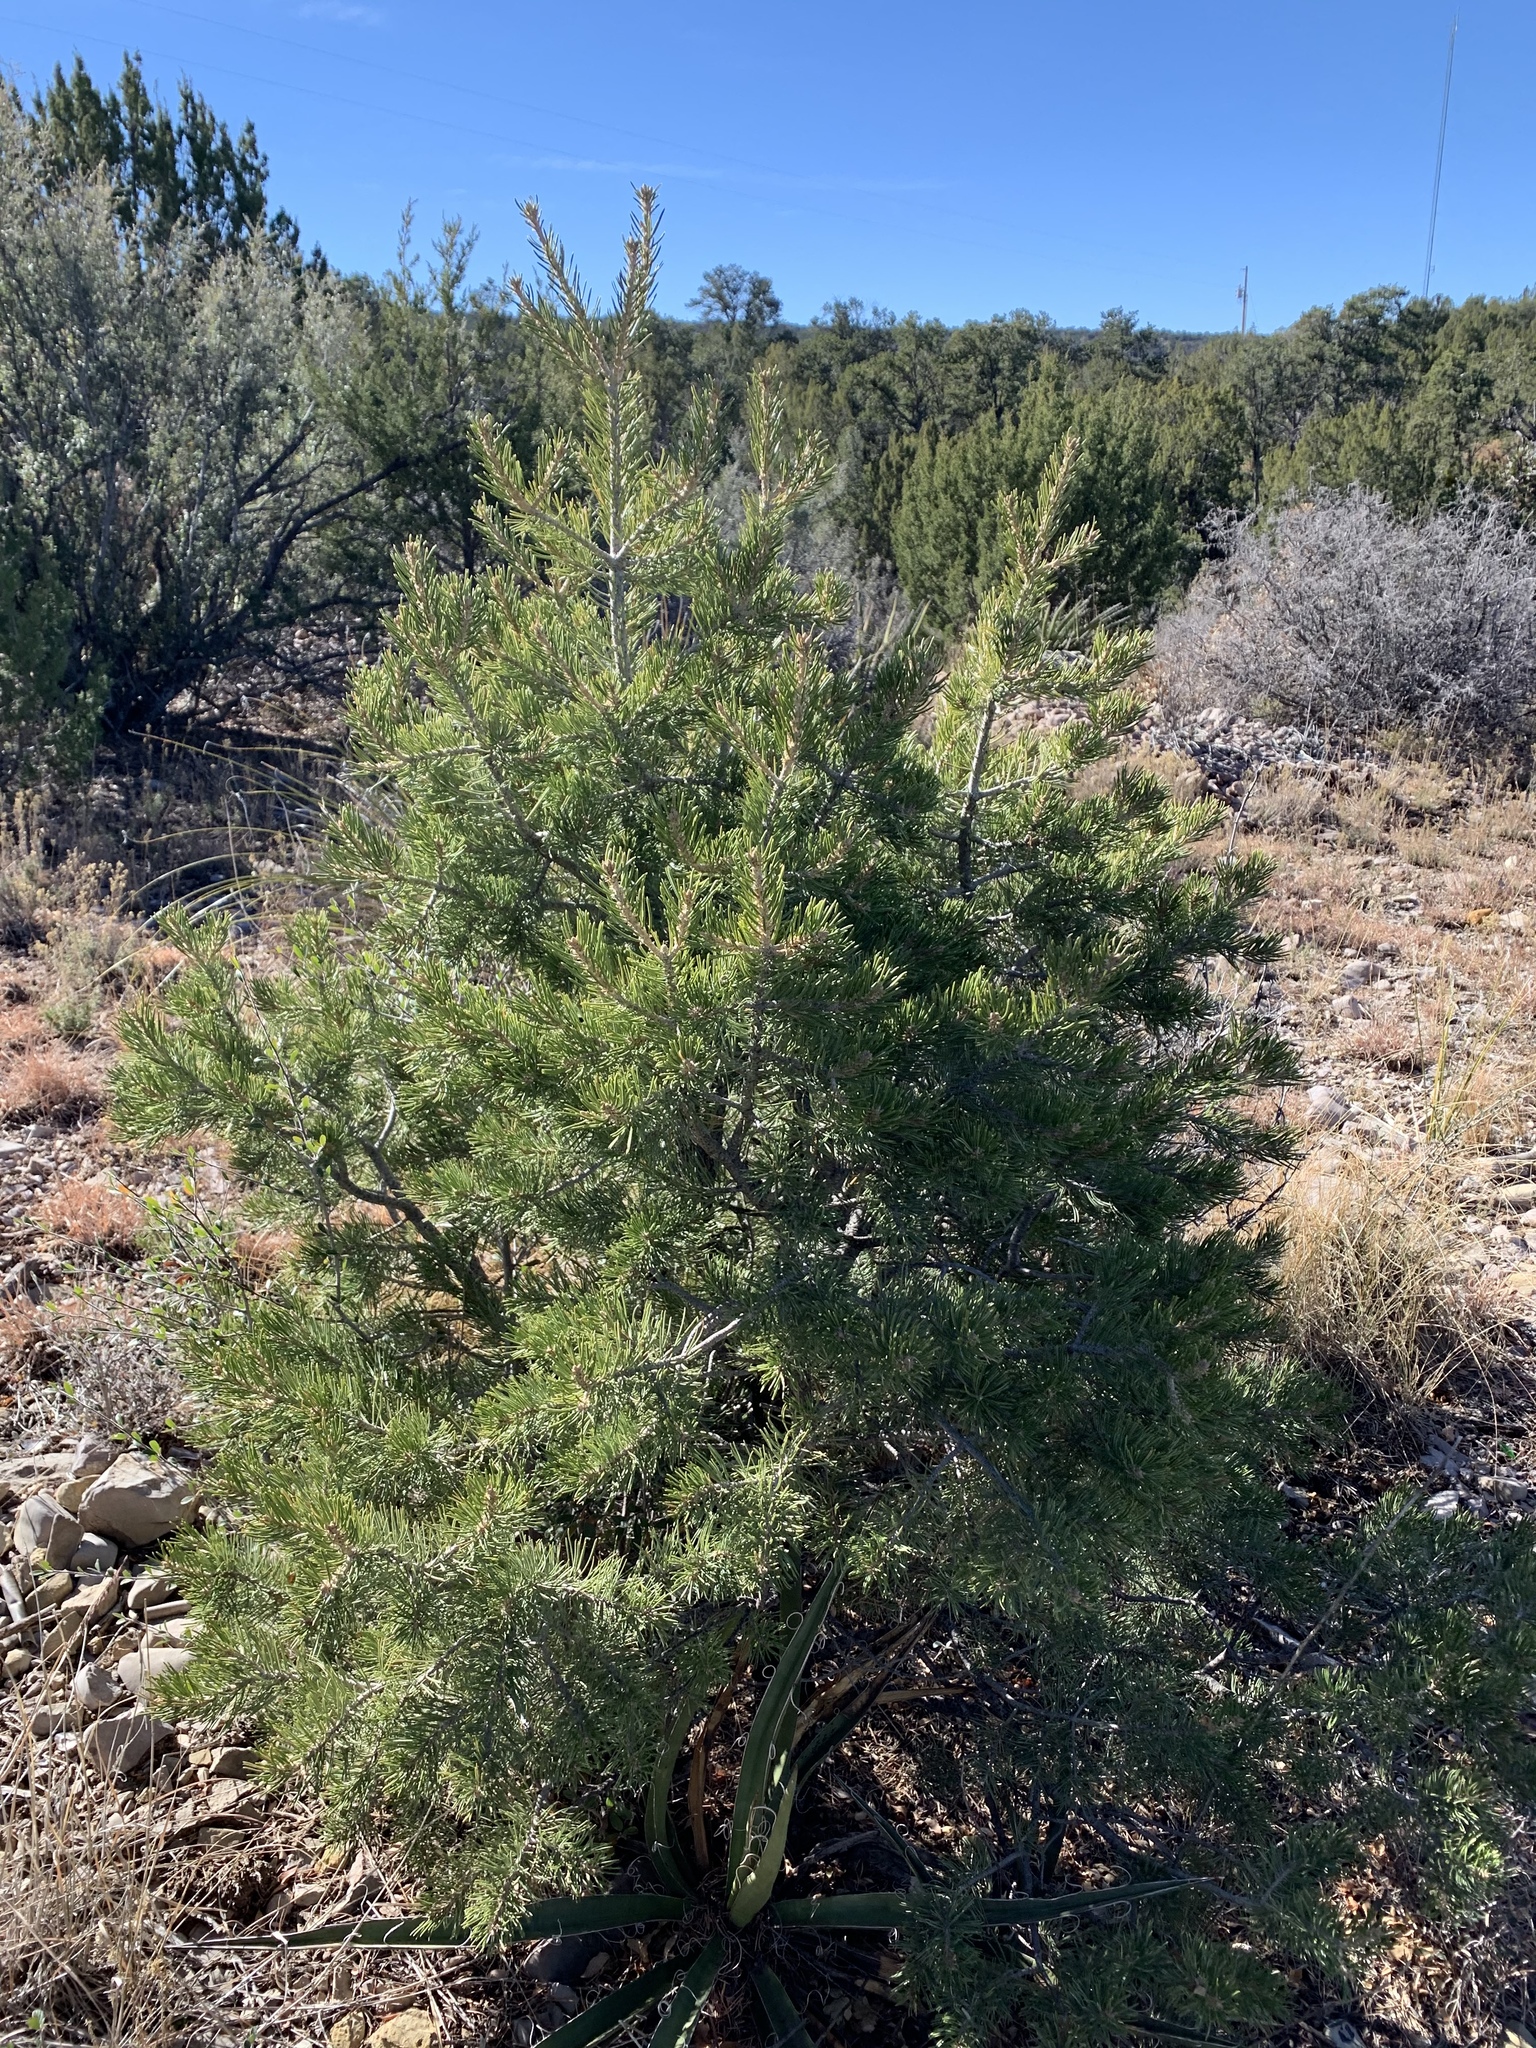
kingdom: Plantae
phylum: Tracheophyta
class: Pinopsida
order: Pinales
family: Pinaceae
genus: Pinus
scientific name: Pinus edulis
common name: Colorado pinyon
